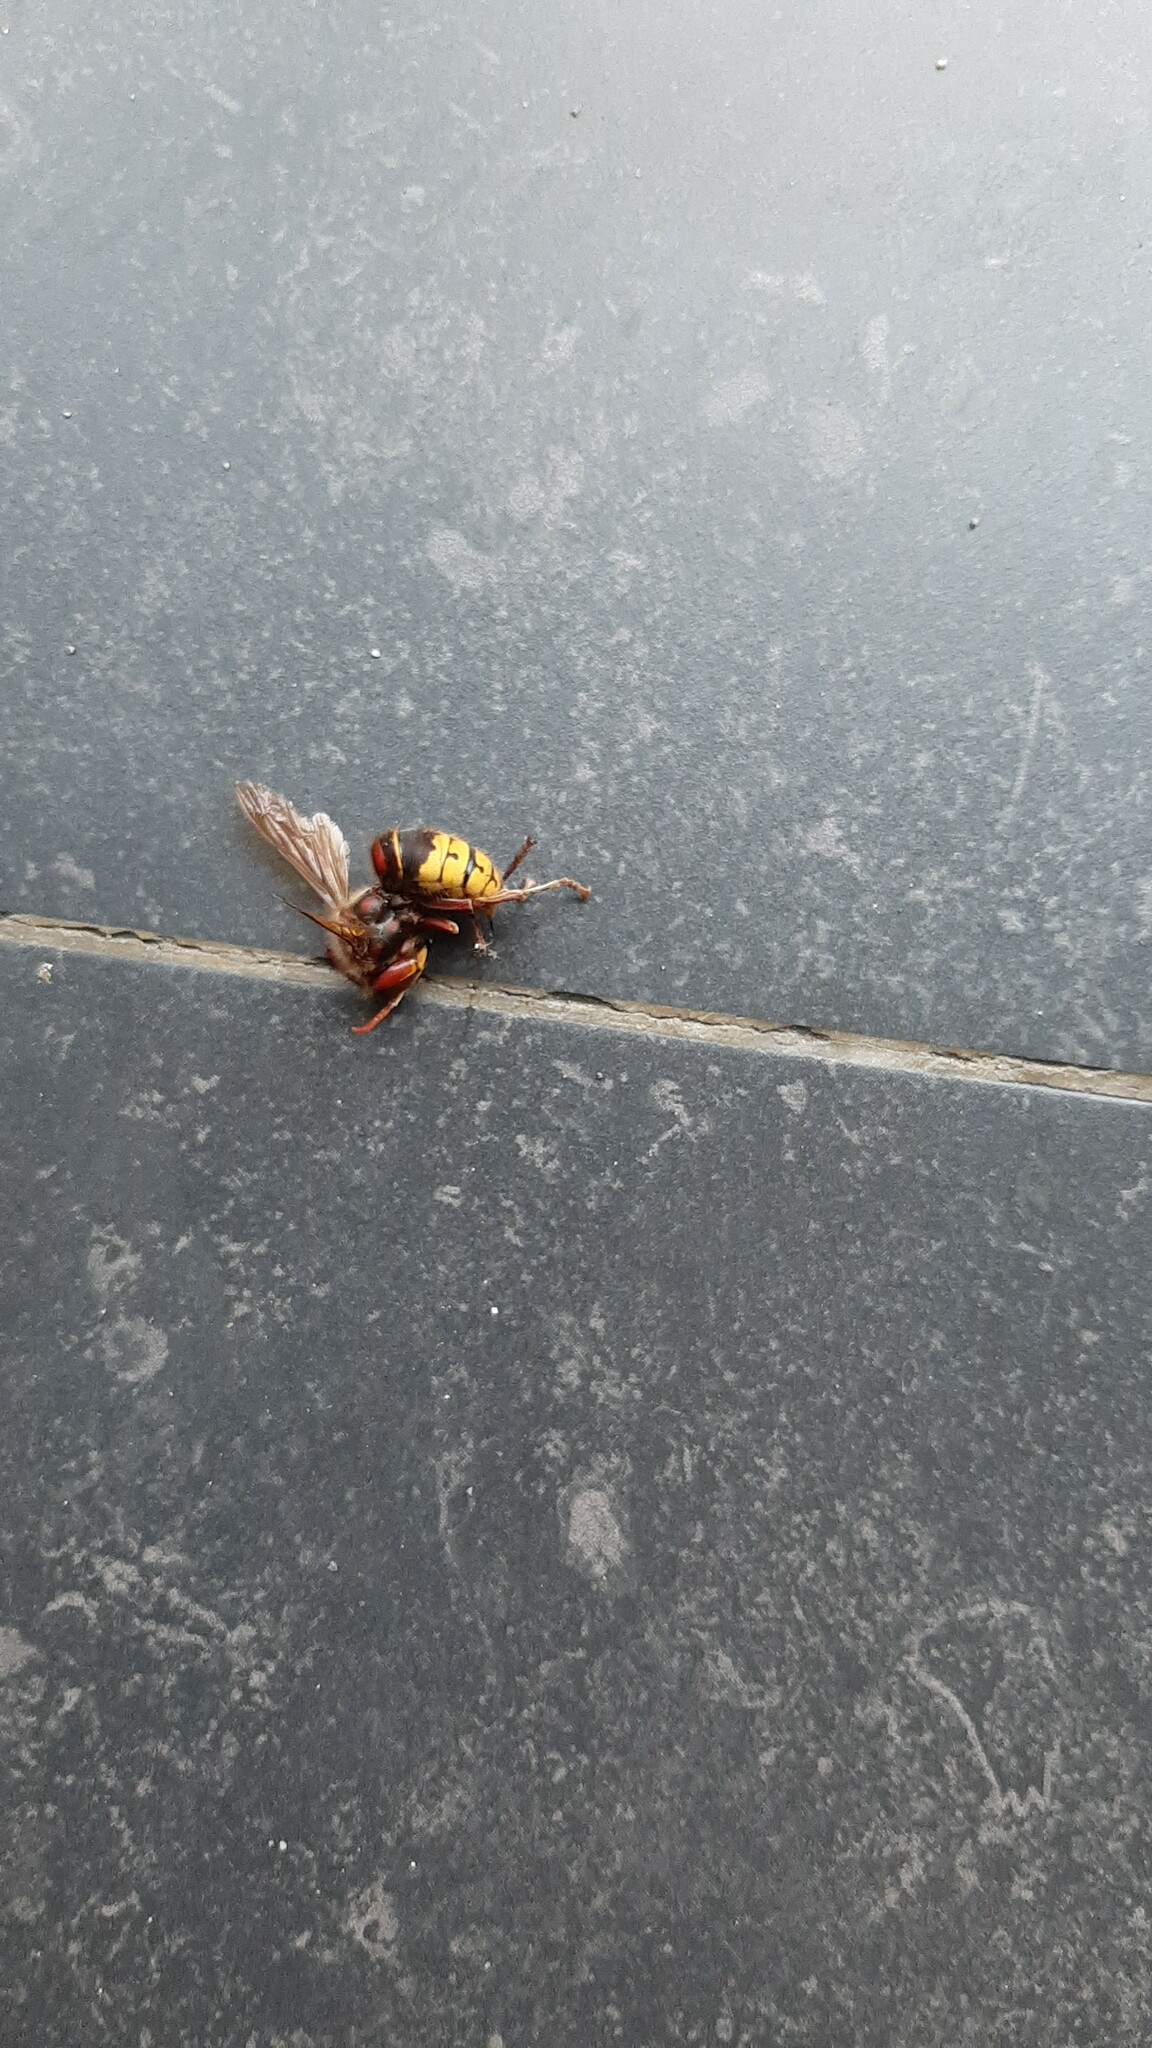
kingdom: Animalia
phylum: Arthropoda
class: Insecta
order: Hymenoptera
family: Vespidae
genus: Vespa
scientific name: Vespa crabro
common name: Hornet
